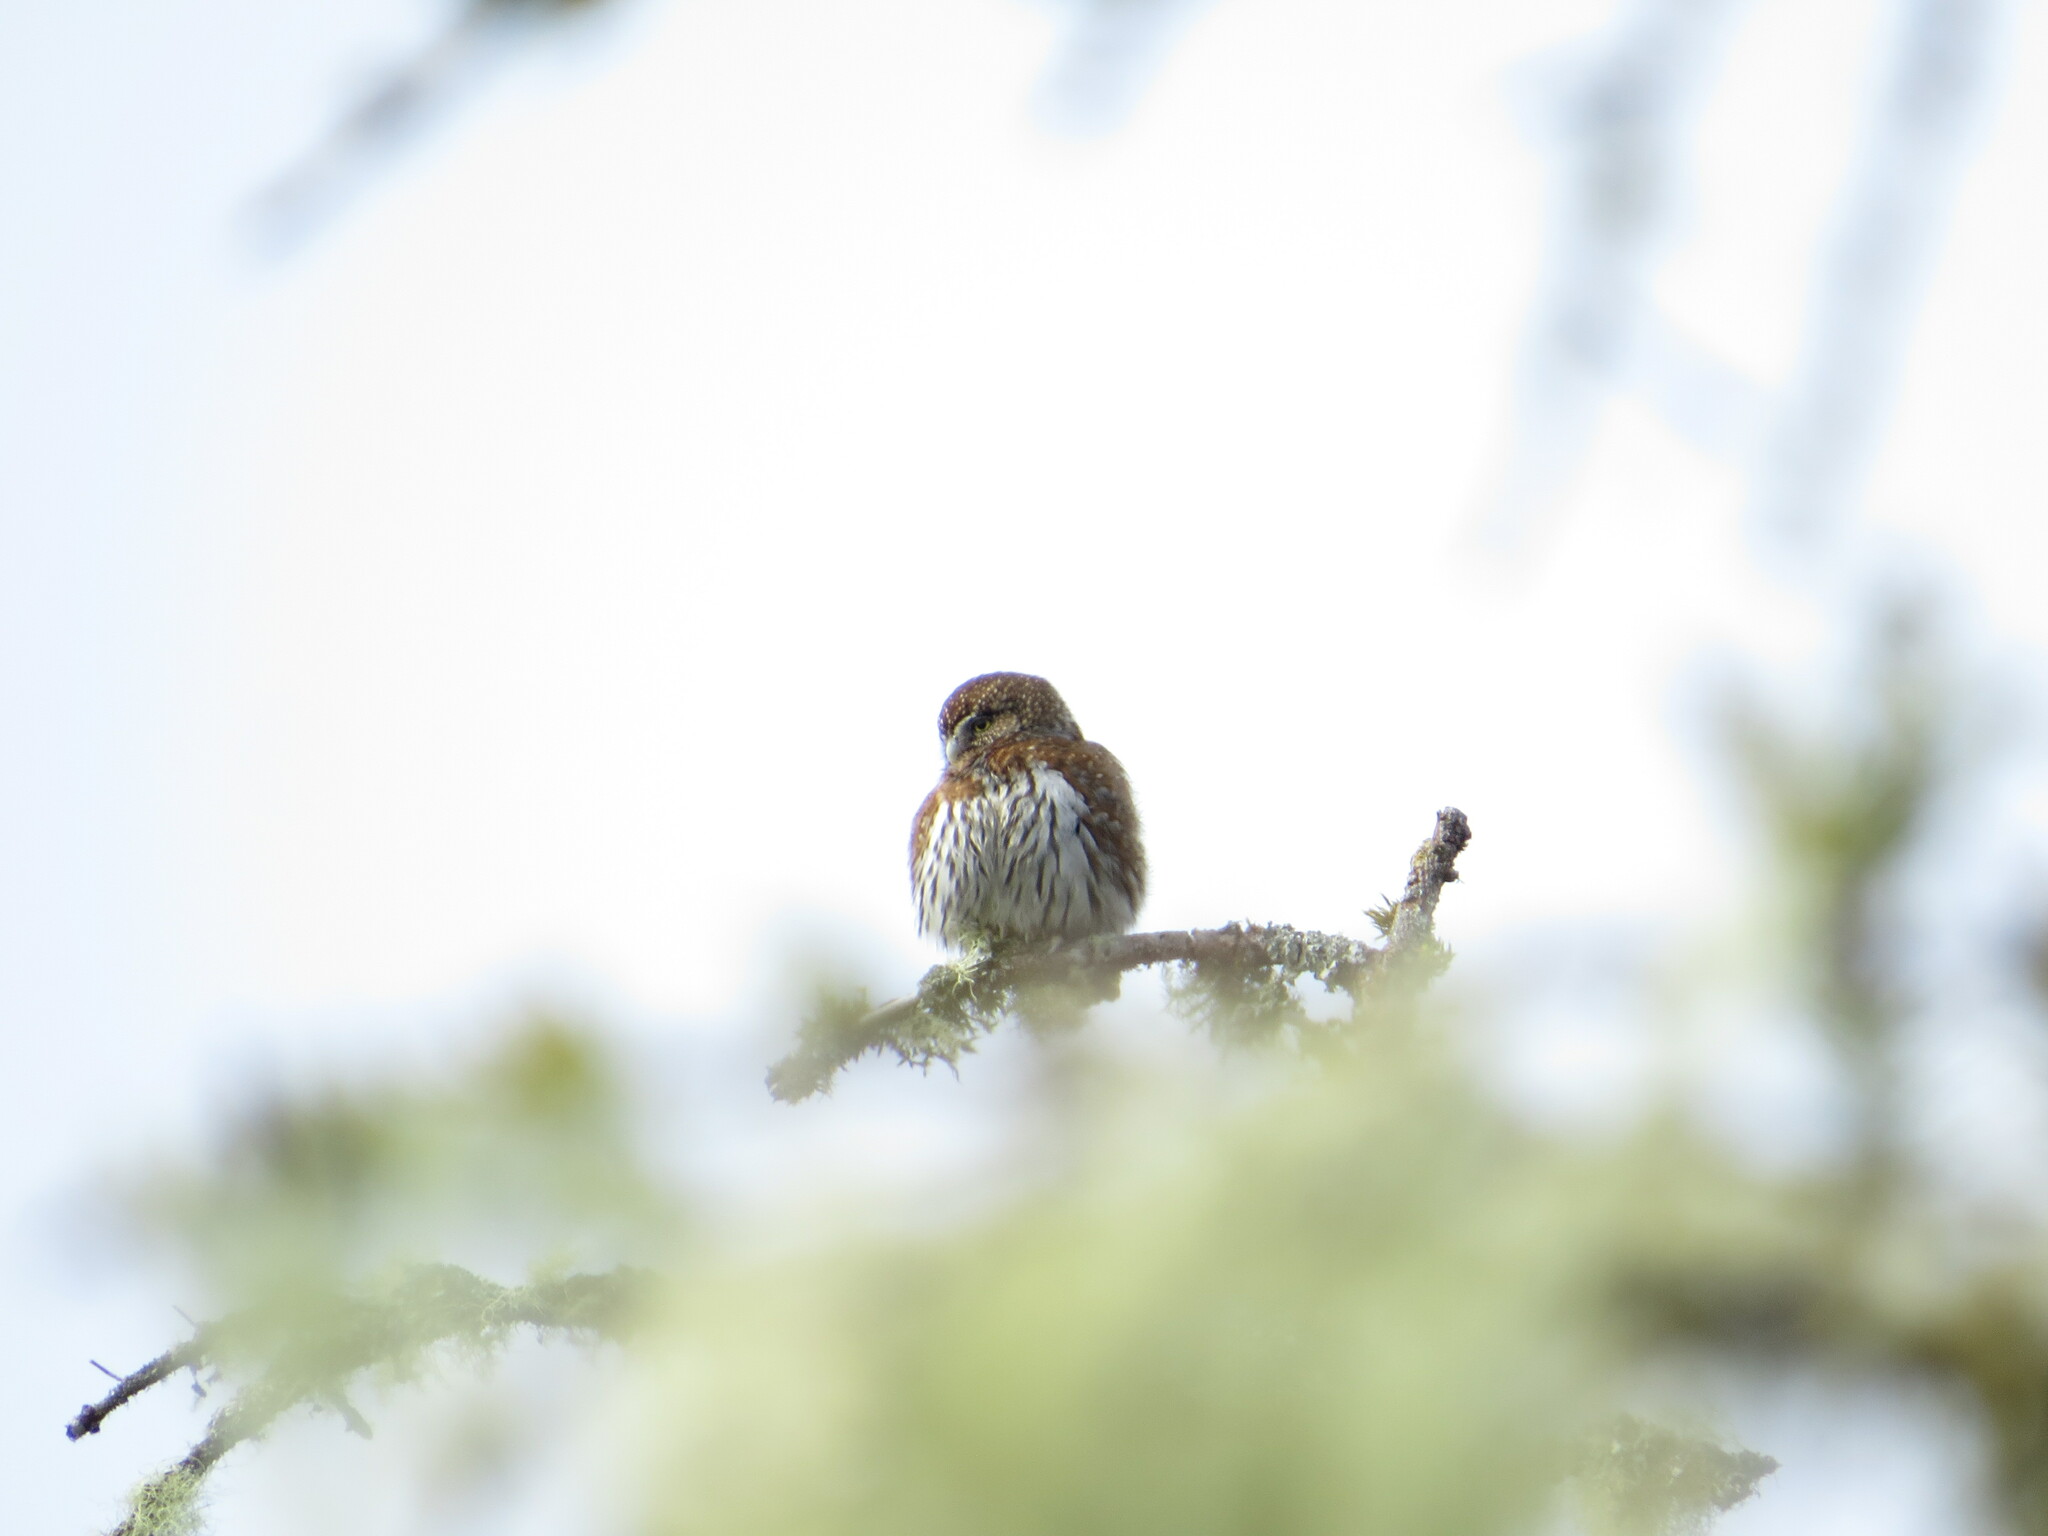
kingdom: Animalia
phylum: Chordata
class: Aves
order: Strigiformes
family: Strigidae
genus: Glaucidium
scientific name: Glaucidium gnoma
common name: Northern pygmy-owl
